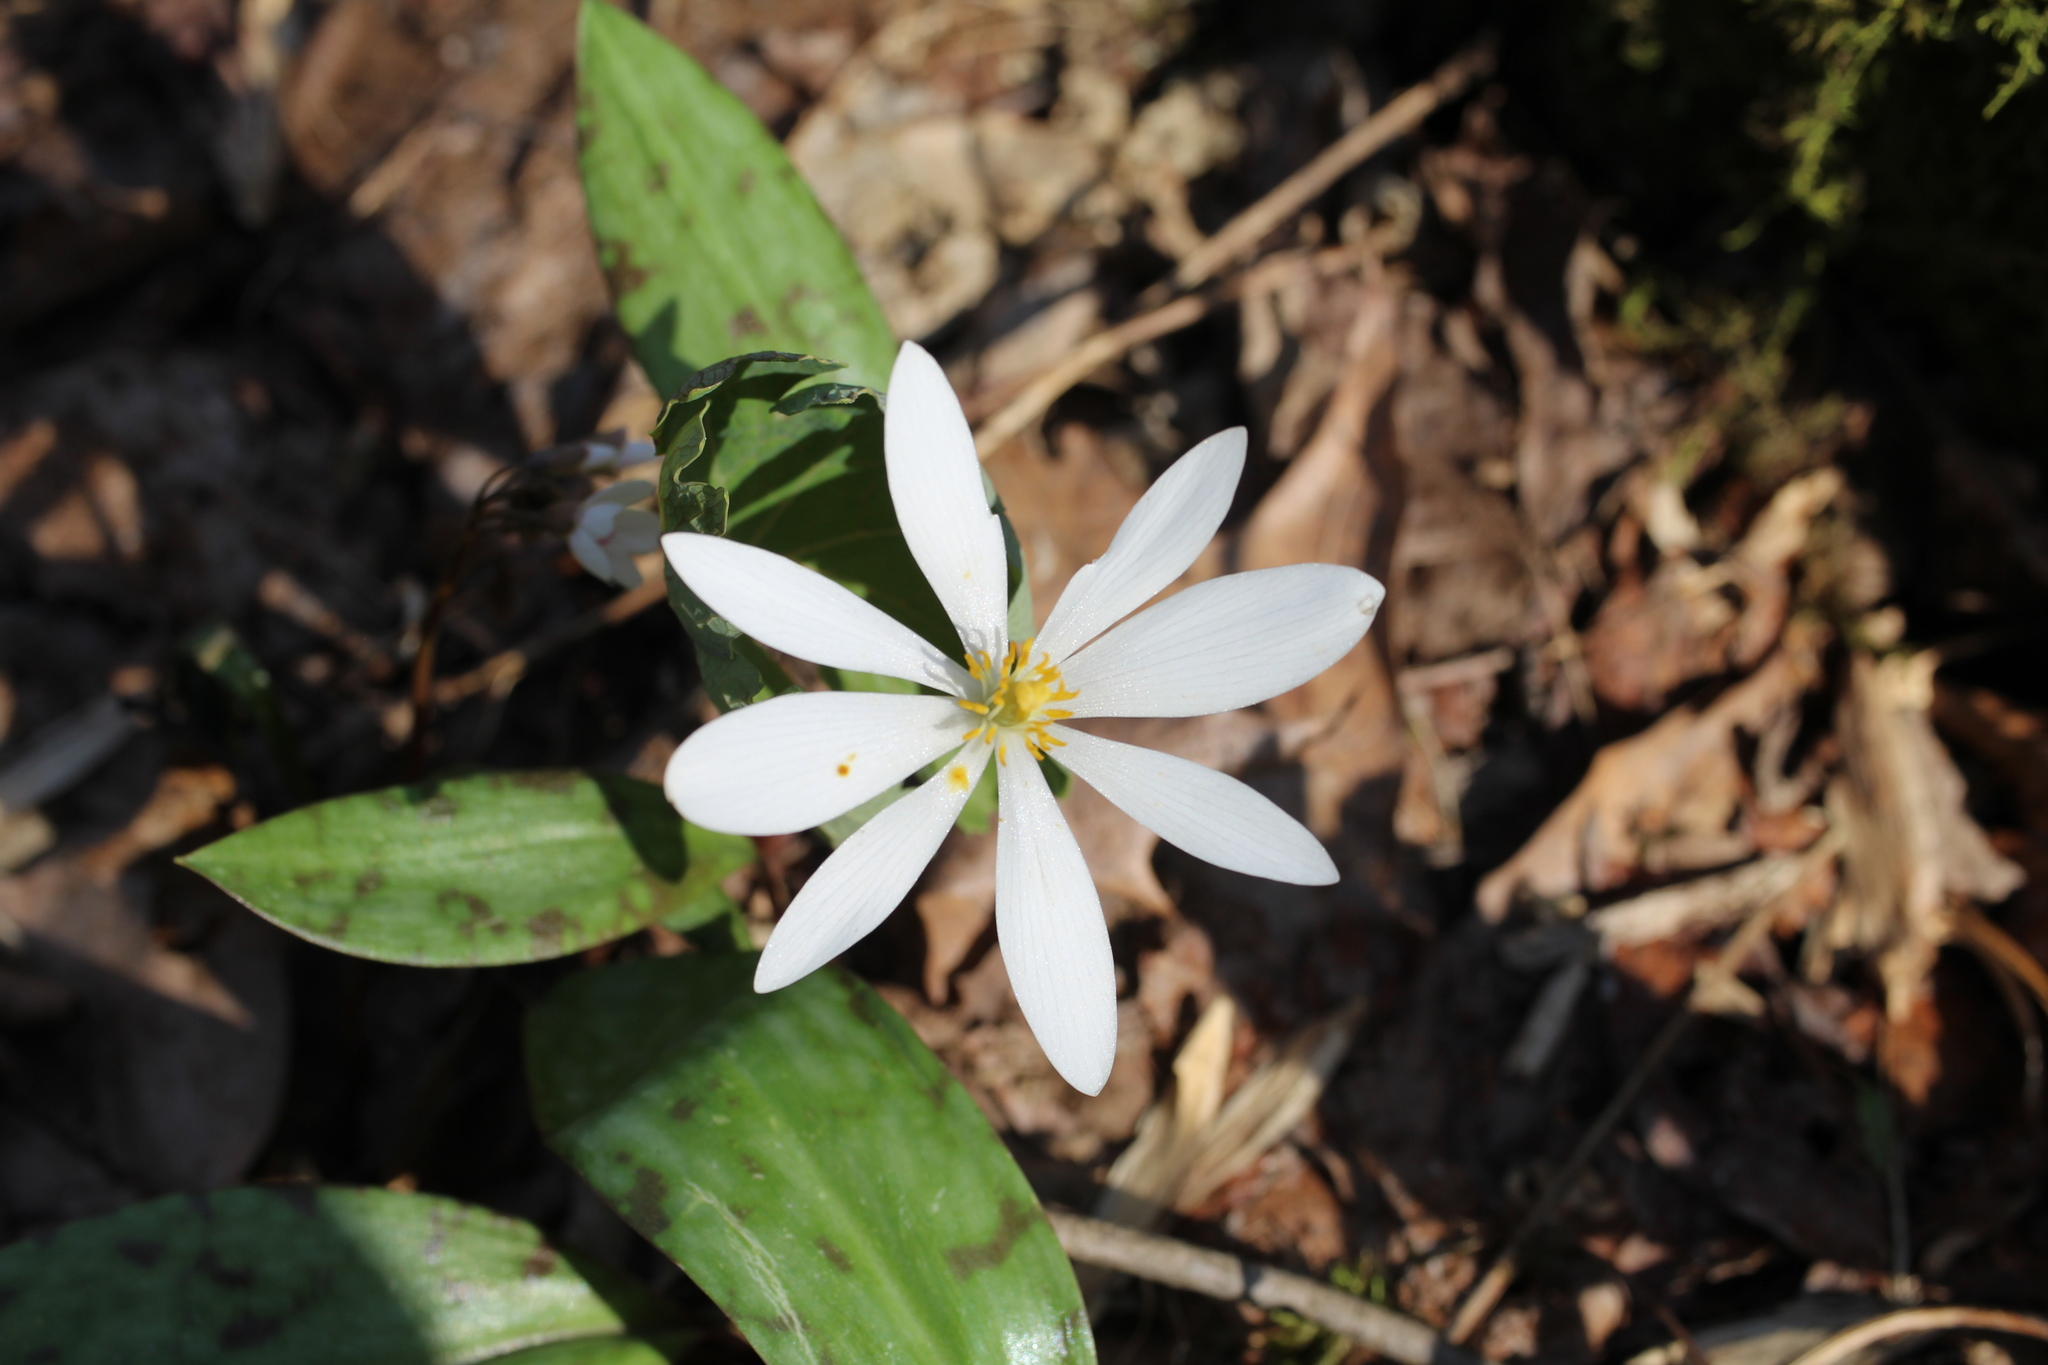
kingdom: Plantae
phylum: Tracheophyta
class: Magnoliopsida
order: Ranunculales
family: Papaveraceae
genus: Sanguinaria
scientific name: Sanguinaria canadensis
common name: Bloodroot
